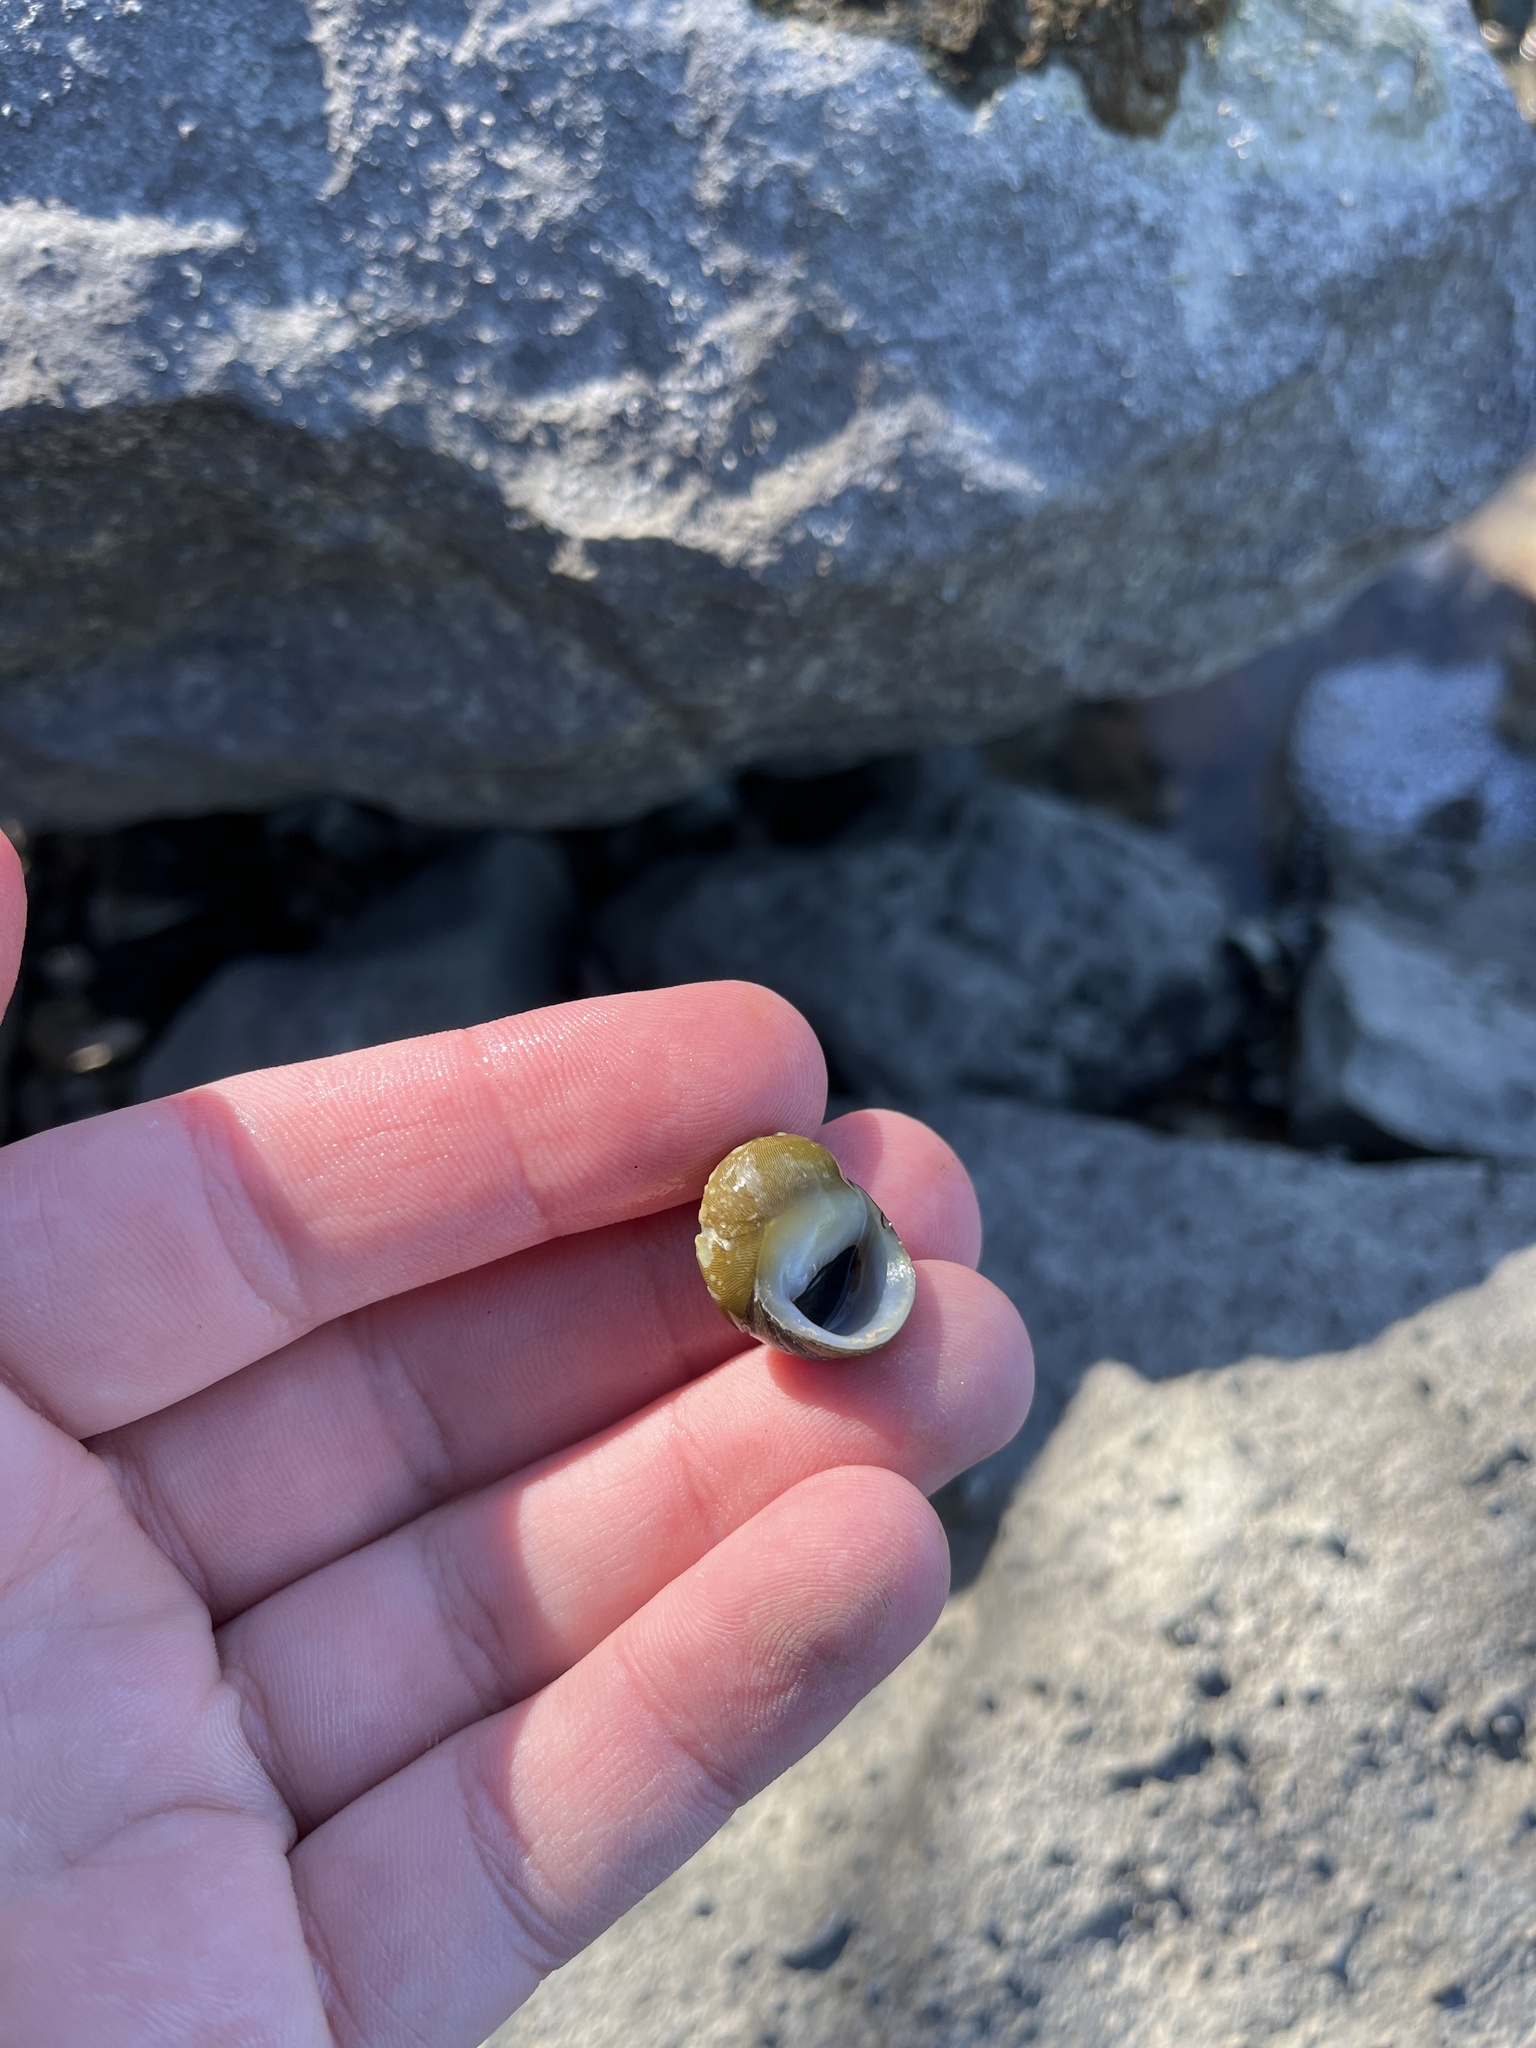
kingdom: Animalia
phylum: Mollusca
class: Gastropoda
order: Cycloneritida
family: Neritidae
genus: Vitta
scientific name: Vitta usnea
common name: Olive nerite
